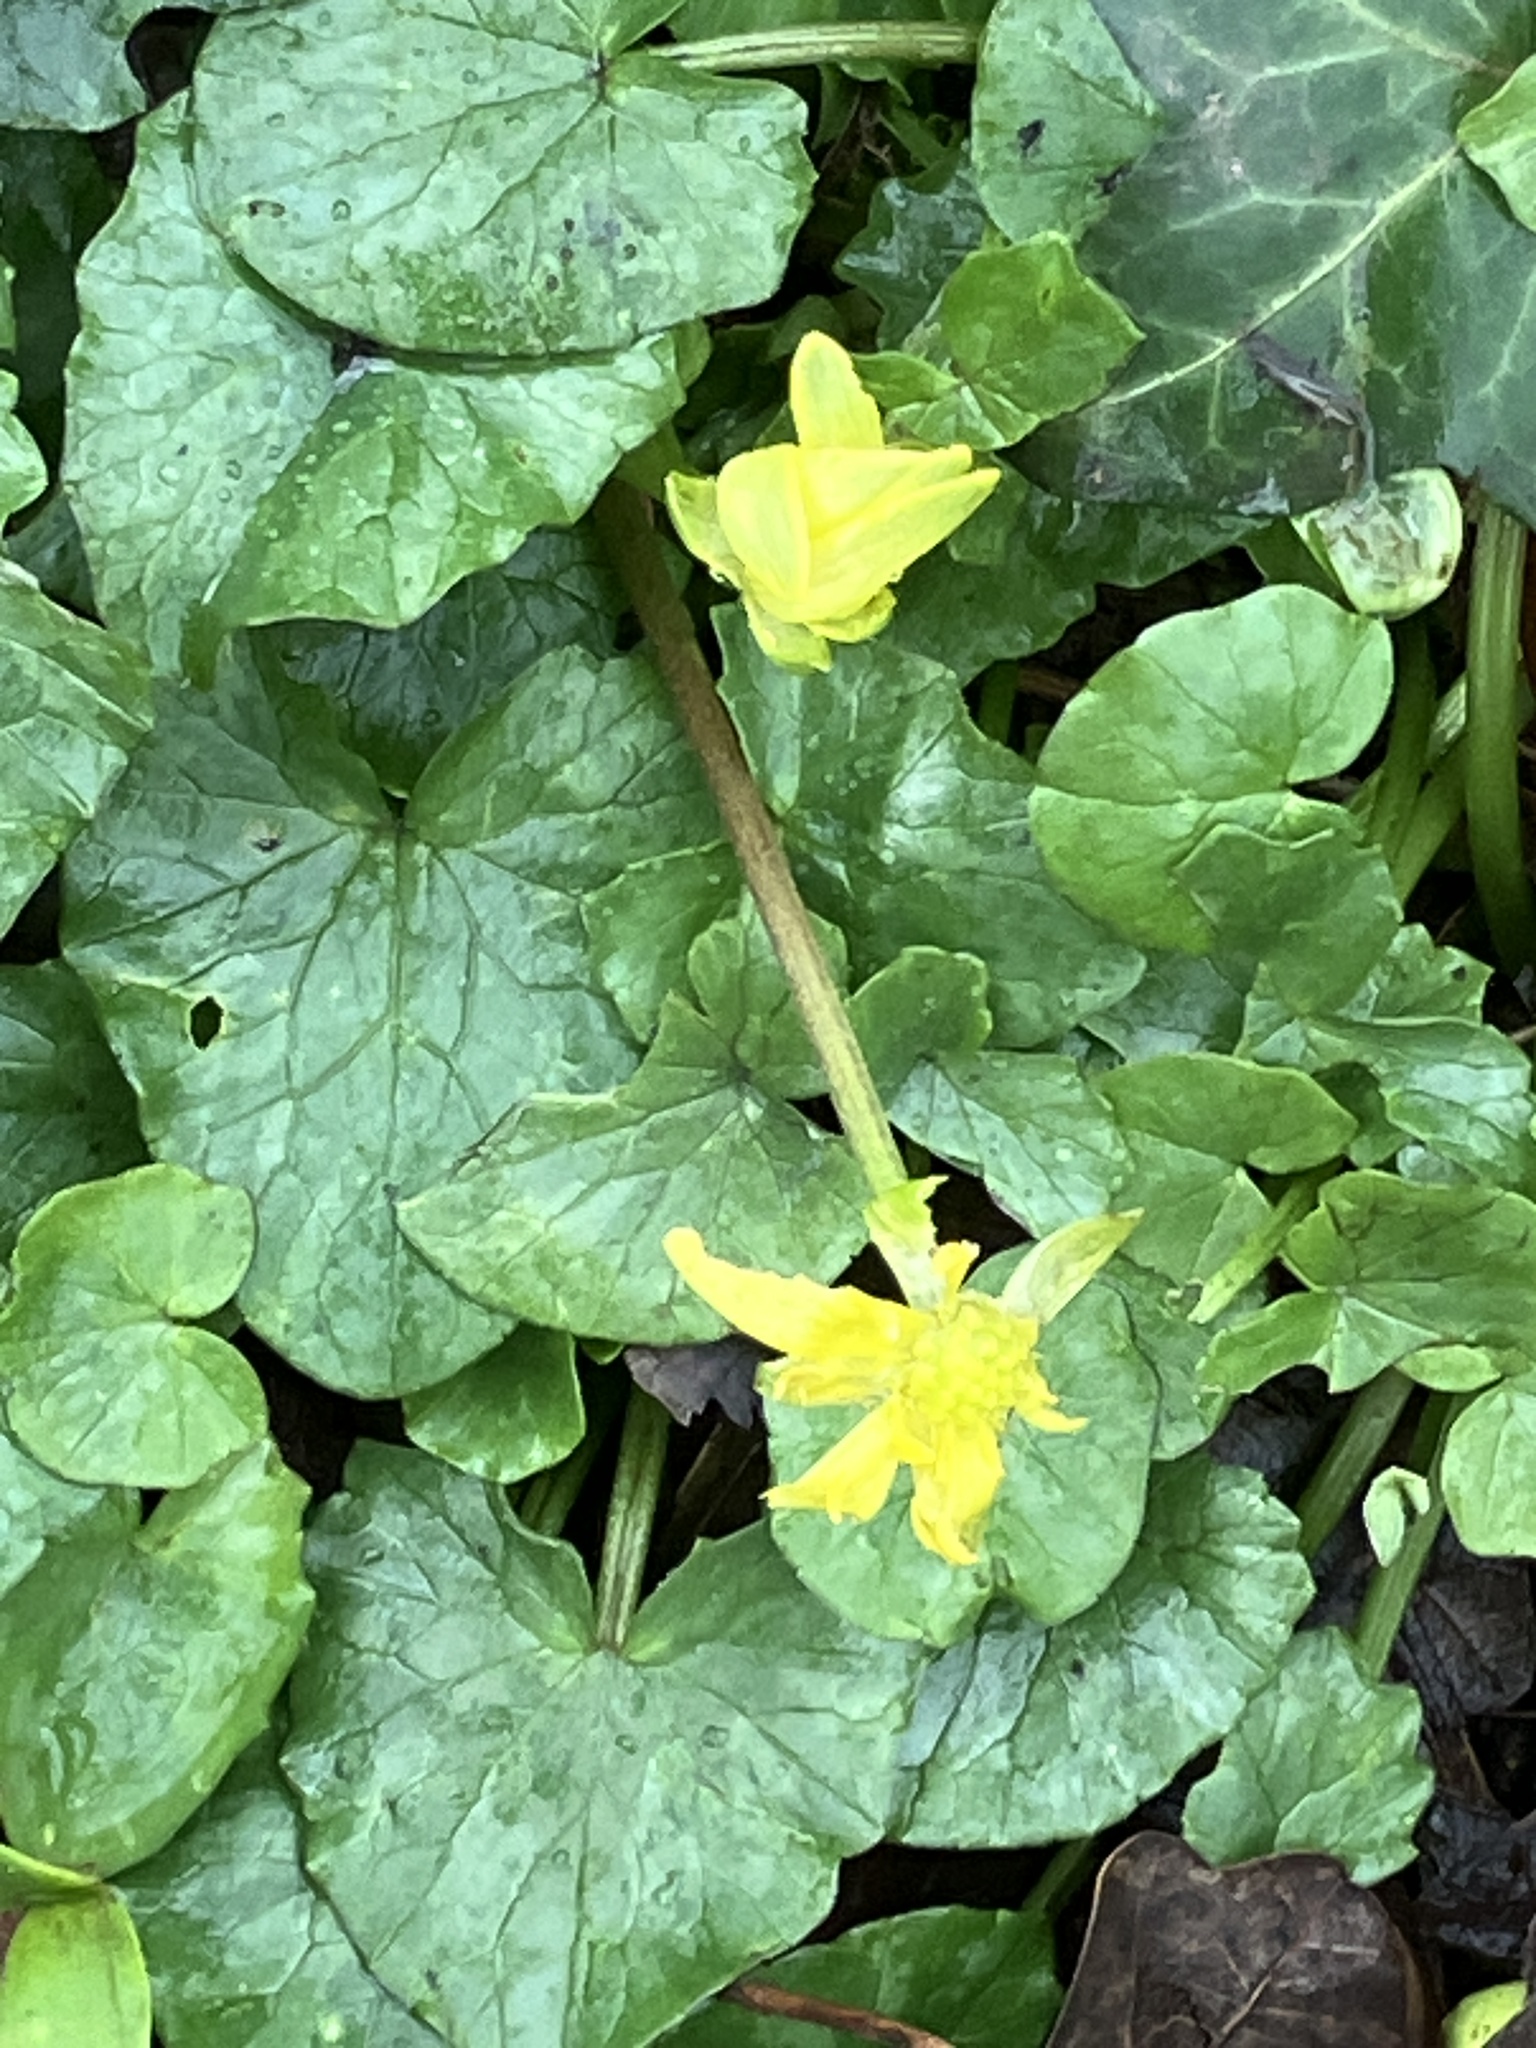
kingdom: Plantae
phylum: Tracheophyta
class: Magnoliopsida
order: Ranunculales
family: Ranunculaceae
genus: Ficaria
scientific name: Ficaria verna
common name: Lesser celandine
